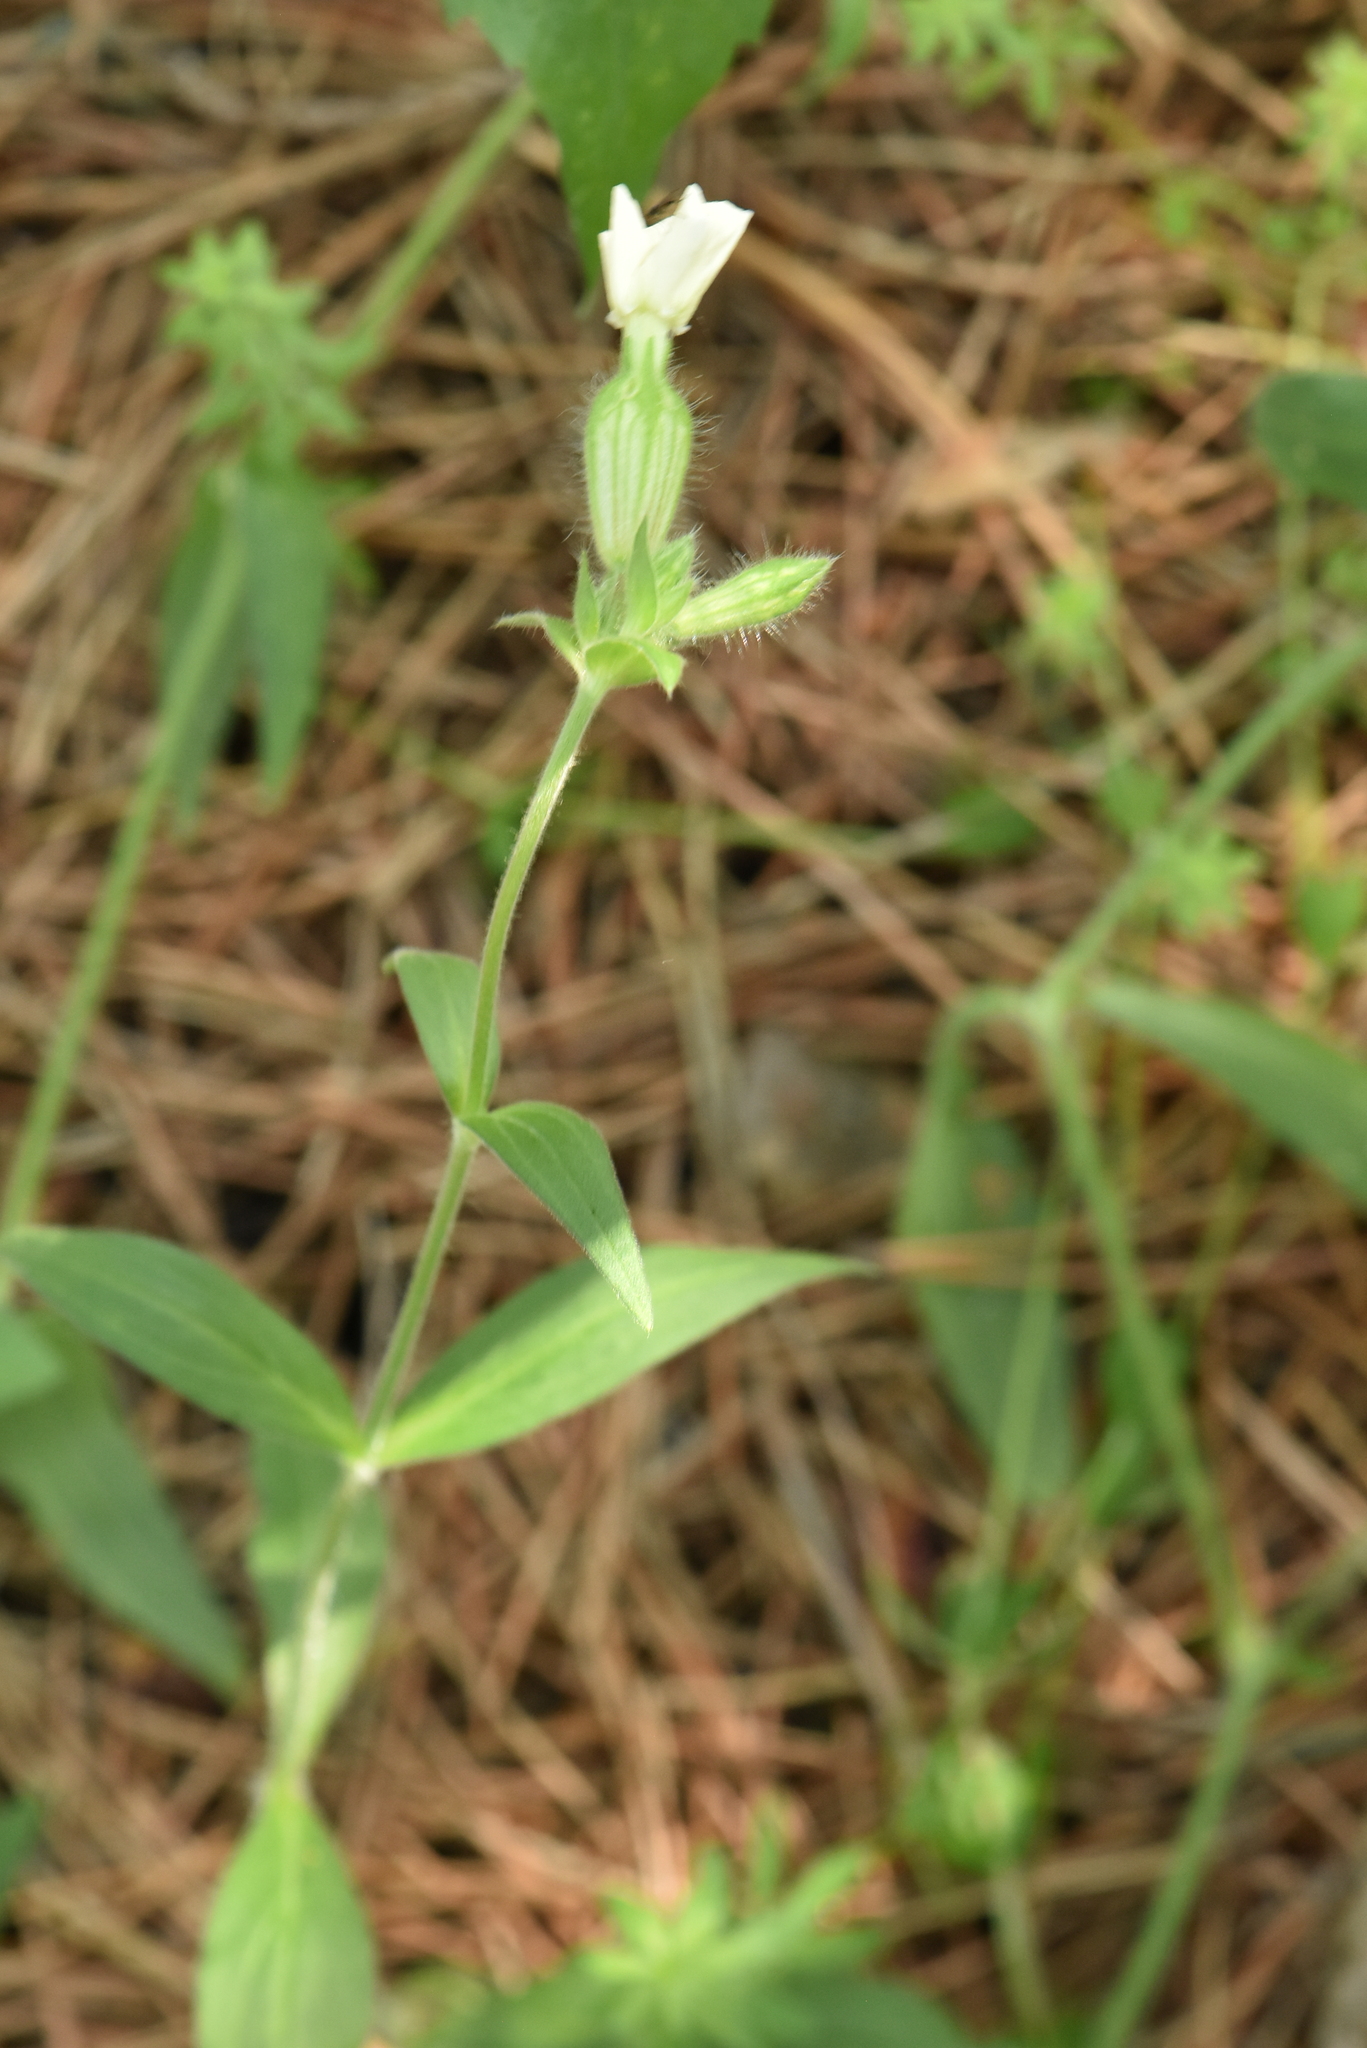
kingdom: Plantae
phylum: Tracheophyta
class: Magnoliopsida
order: Caryophyllales
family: Caryophyllaceae
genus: Silene
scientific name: Silene latifolia
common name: White campion
